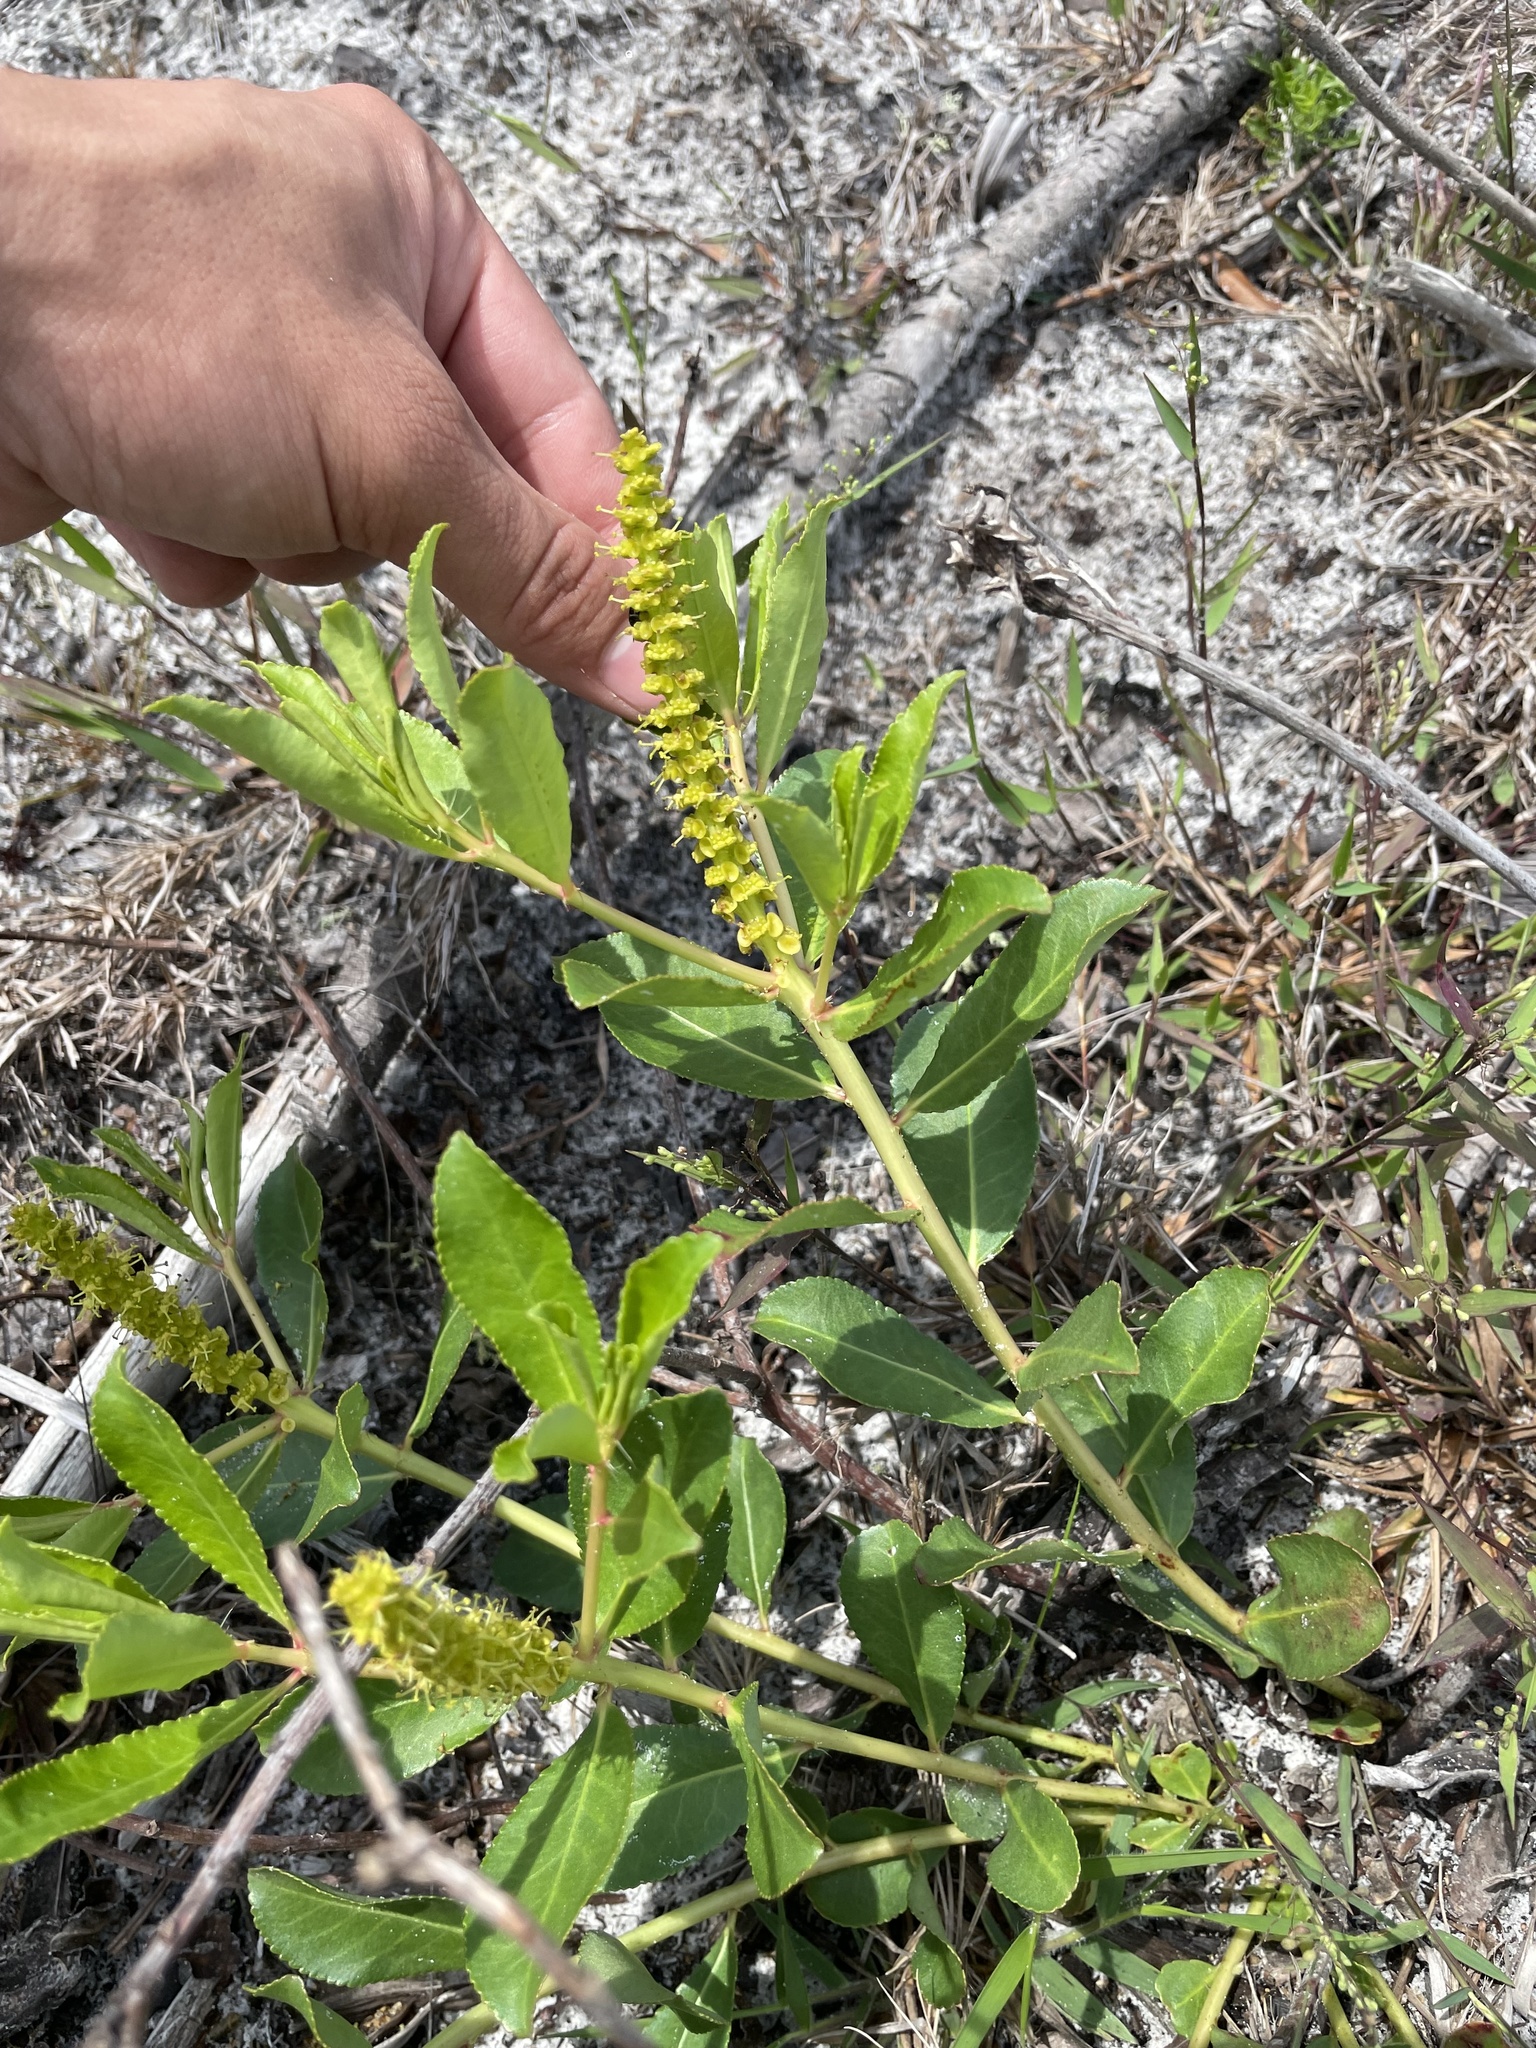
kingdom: Plantae
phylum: Tracheophyta
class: Magnoliopsida
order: Malpighiales
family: Euphorbiaceae
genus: Stillingia
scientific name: Stillingia sylvatica
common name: Queen's-delight
